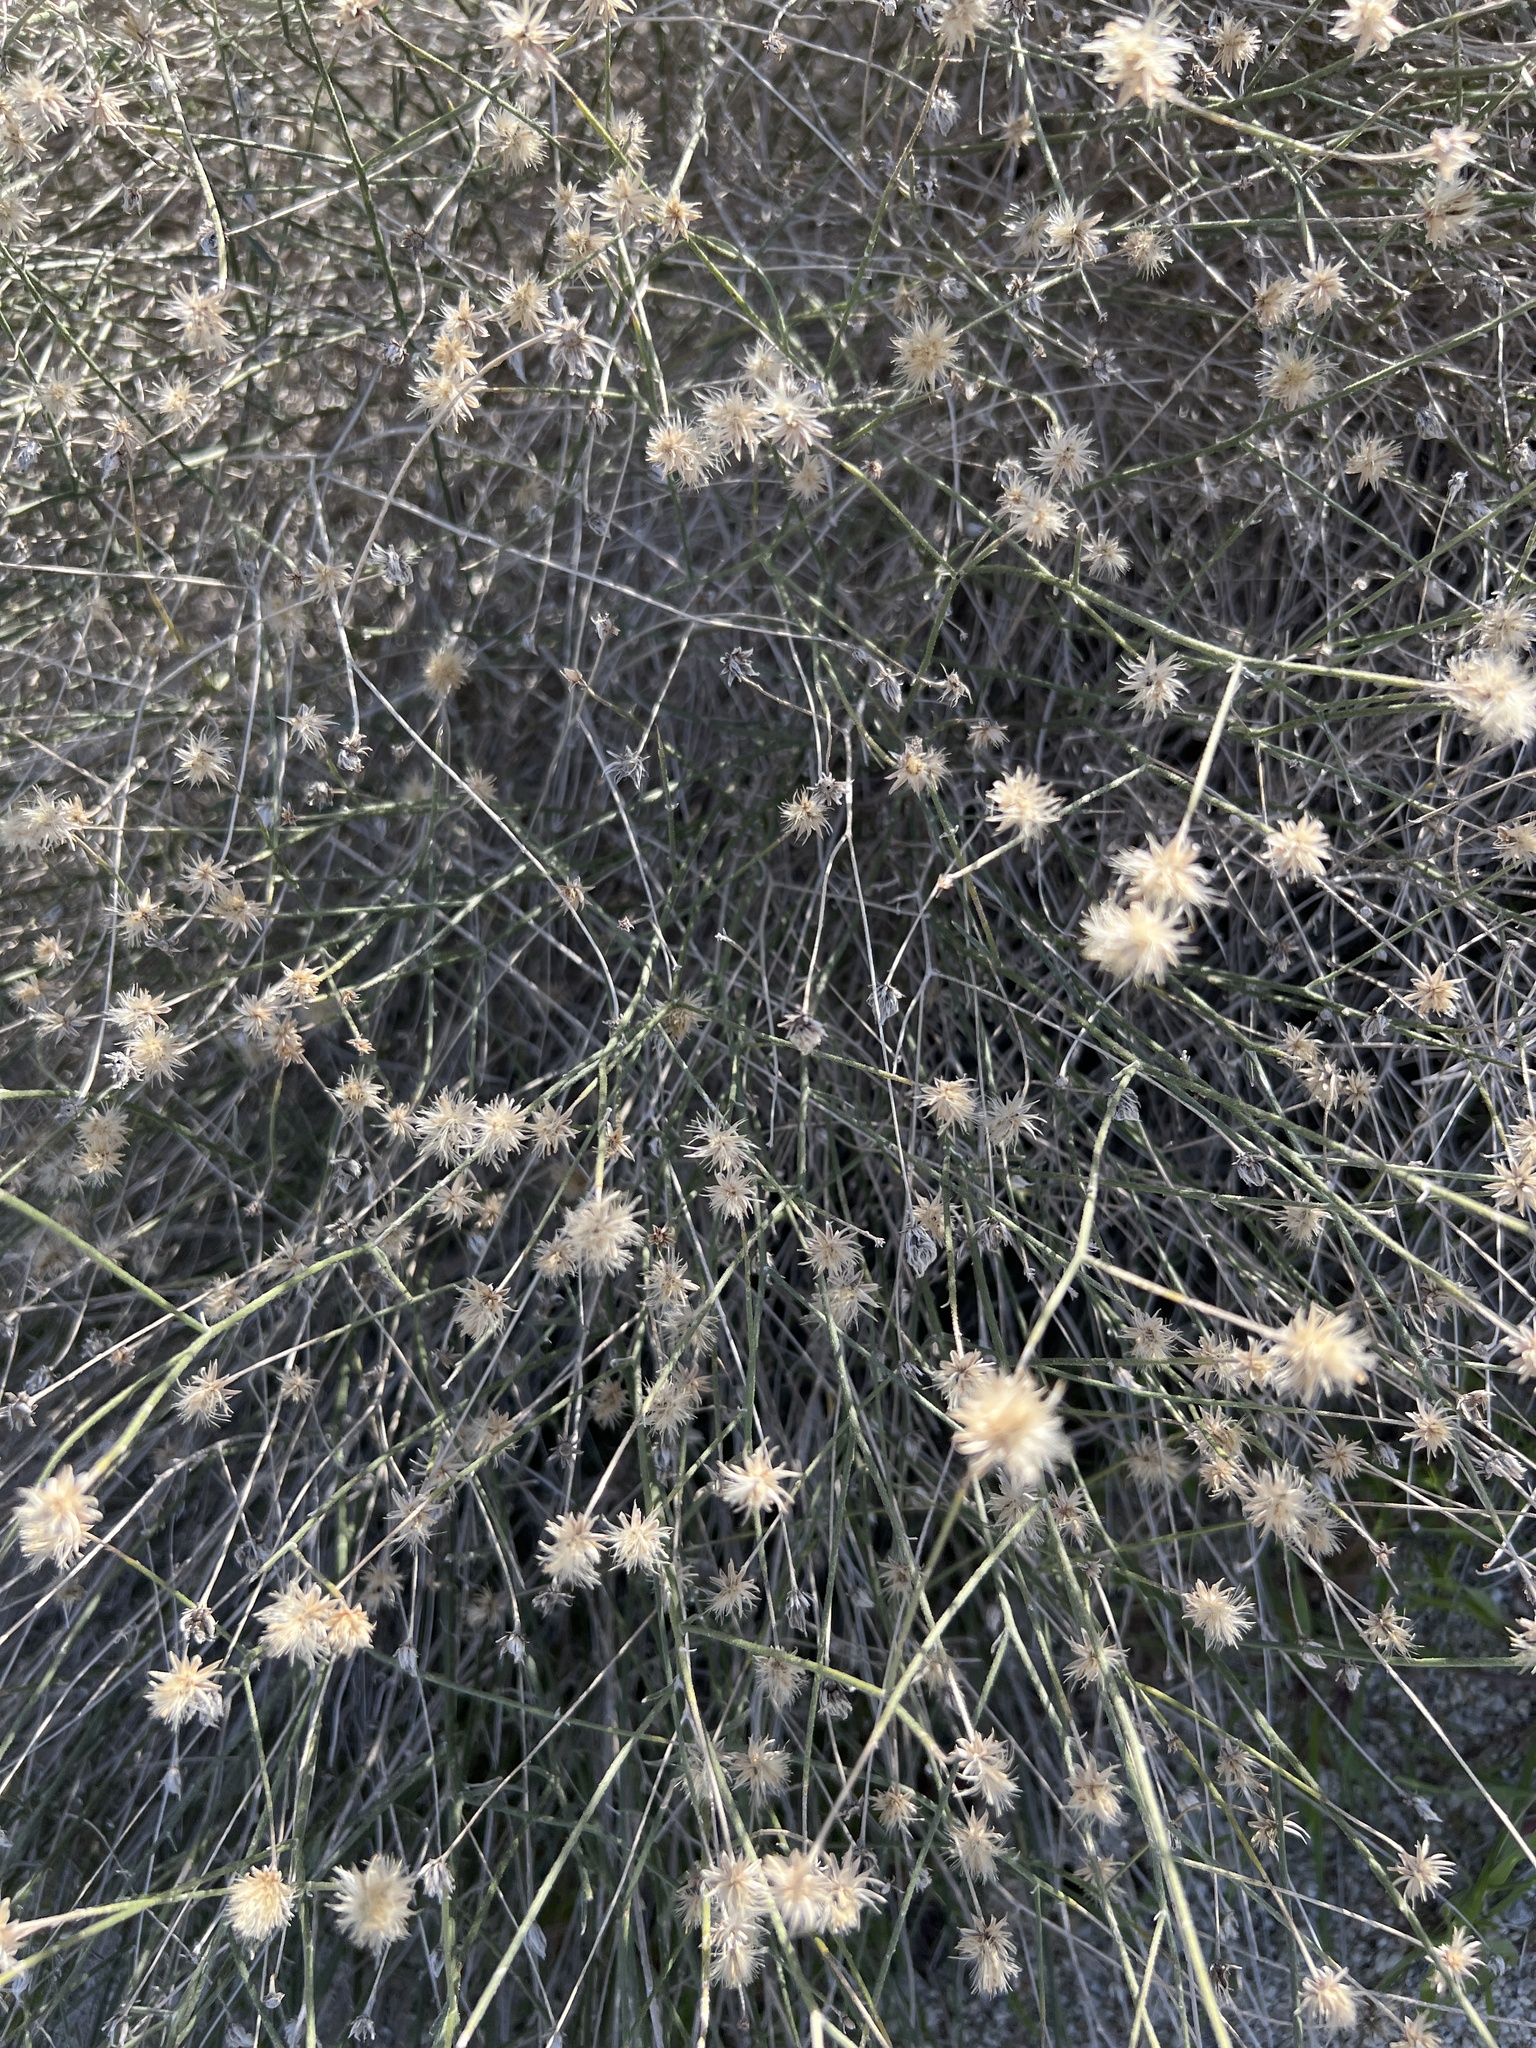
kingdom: Plantae
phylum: Tracheophyta
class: Magnoliopsida
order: Asterales
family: Asteraceae
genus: Bebbia
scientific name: Bebbia juncea
